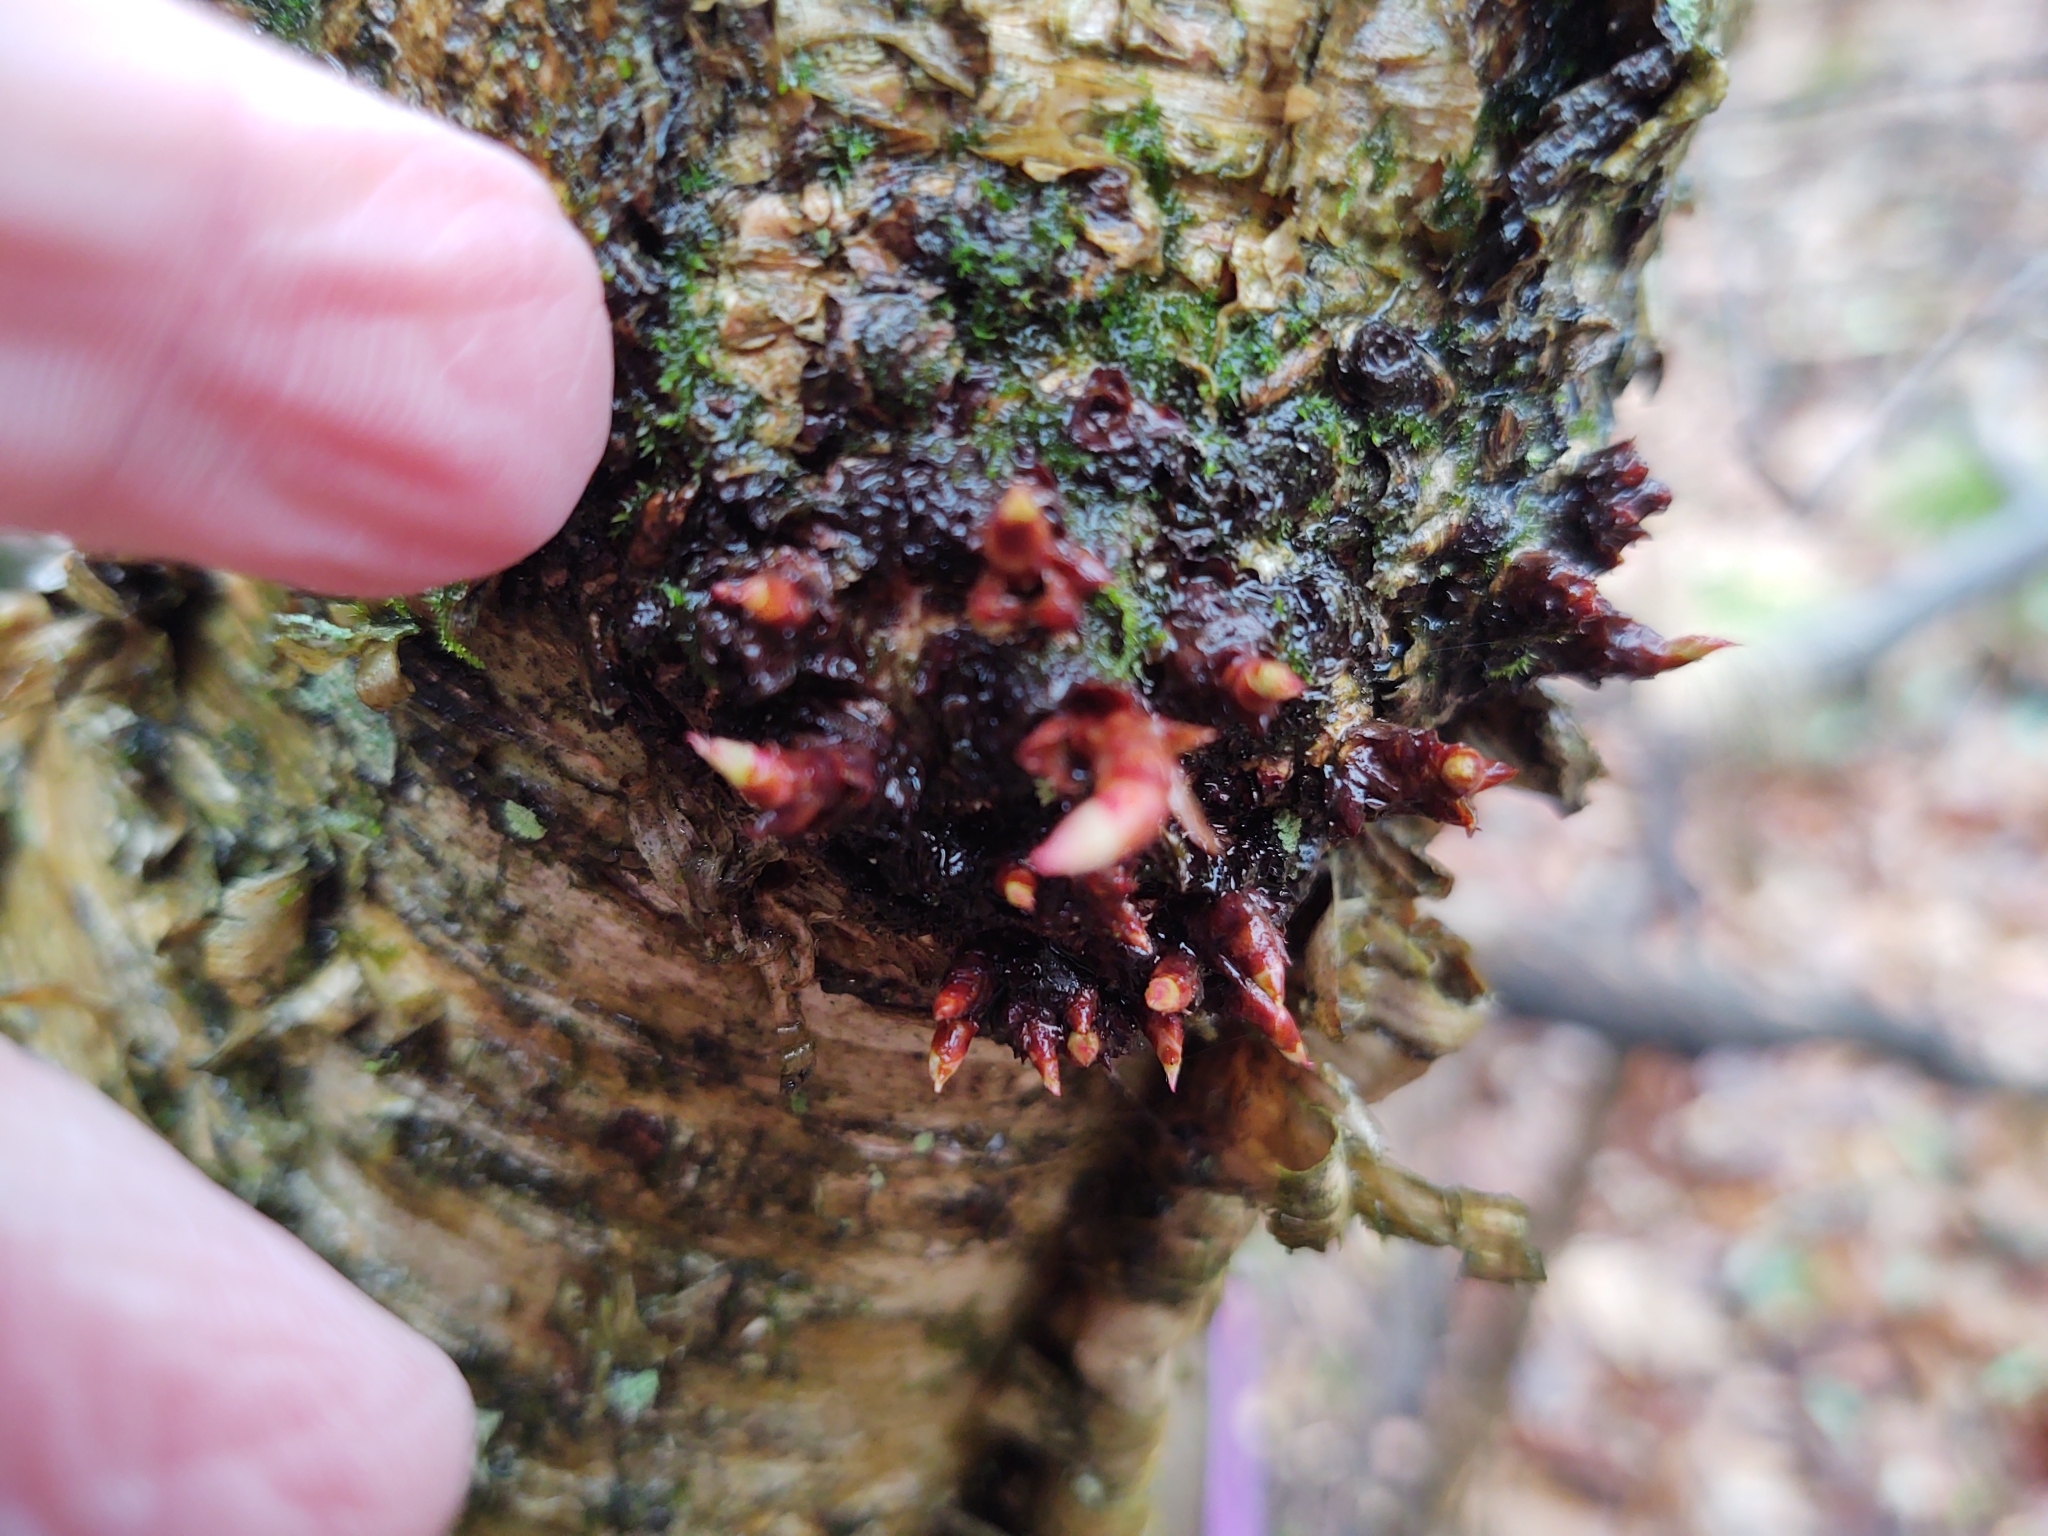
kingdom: Plantae
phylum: Tracheophyta
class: Magnoliopsida
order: Fagales
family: Betulaceae
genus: Betula
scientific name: Betula alleghaniensis
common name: Yellow birch
